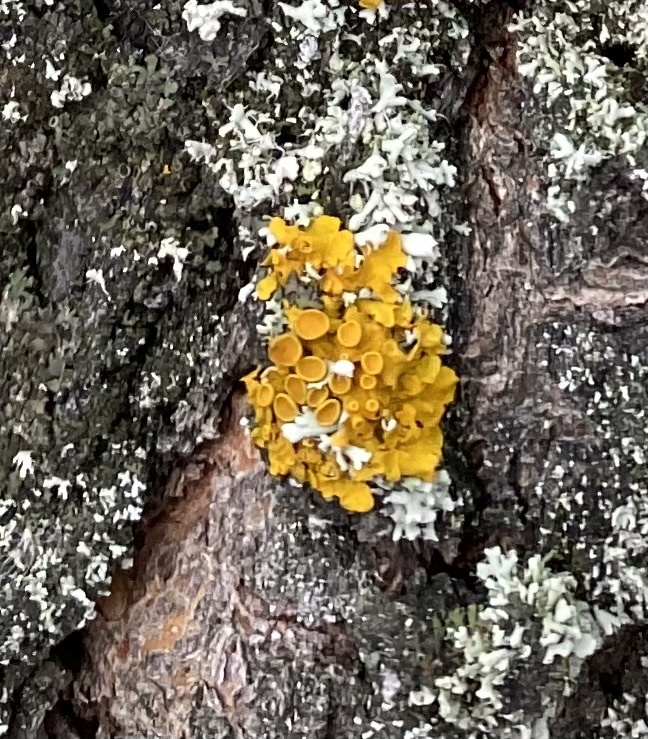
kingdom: Fungi
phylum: Ascomycota
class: Lecanoromycetes
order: Teloschistales
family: Teloschistaceae
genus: Xanthoria
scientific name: Xanthoria parietina
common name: Common orange lichen
